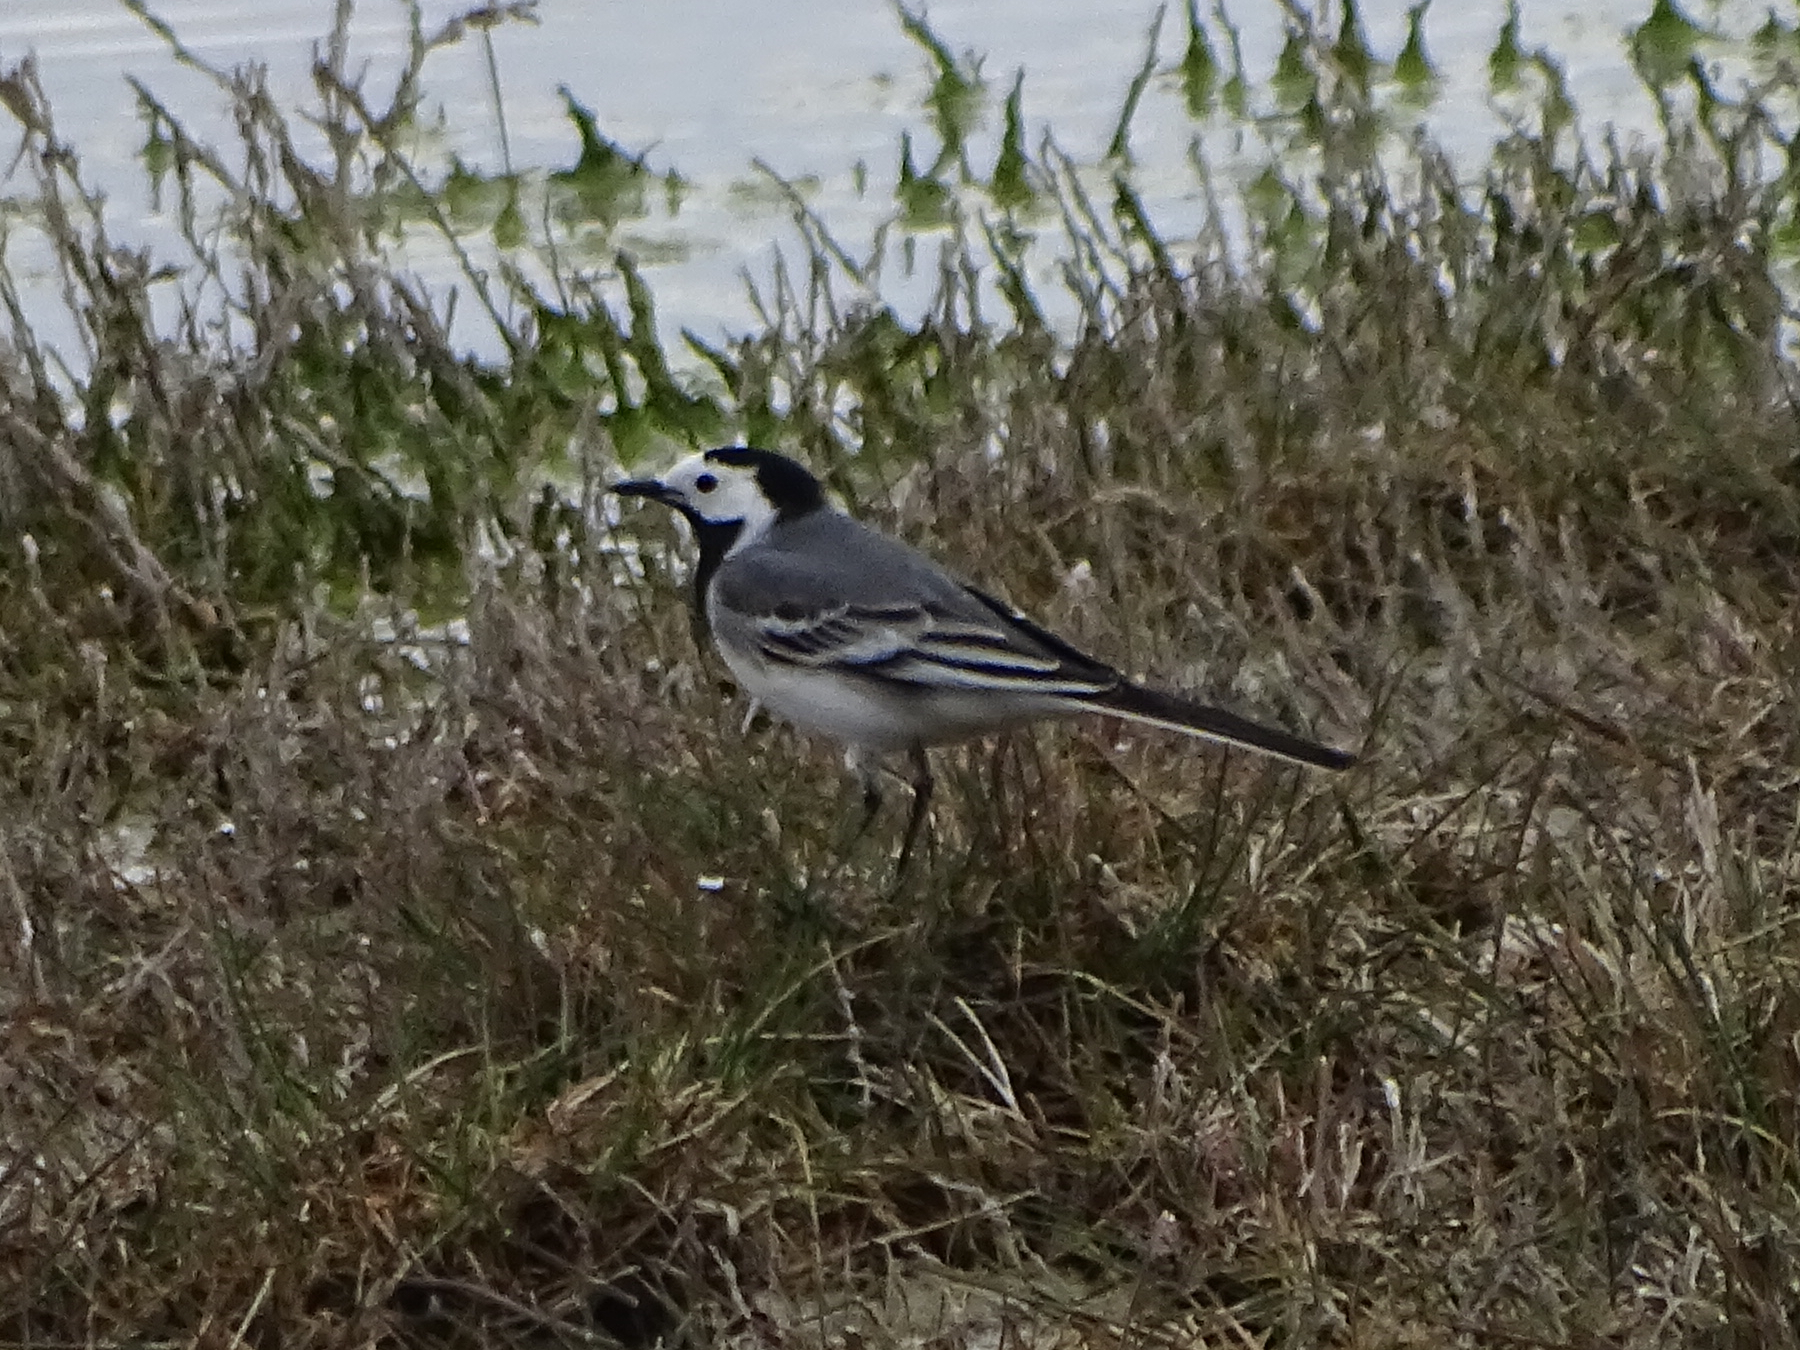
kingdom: Animalia
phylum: Chordata
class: Aves
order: Passeriformes
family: Motacillidae
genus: Motacilla
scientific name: Motacilla alba
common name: White wagtail
